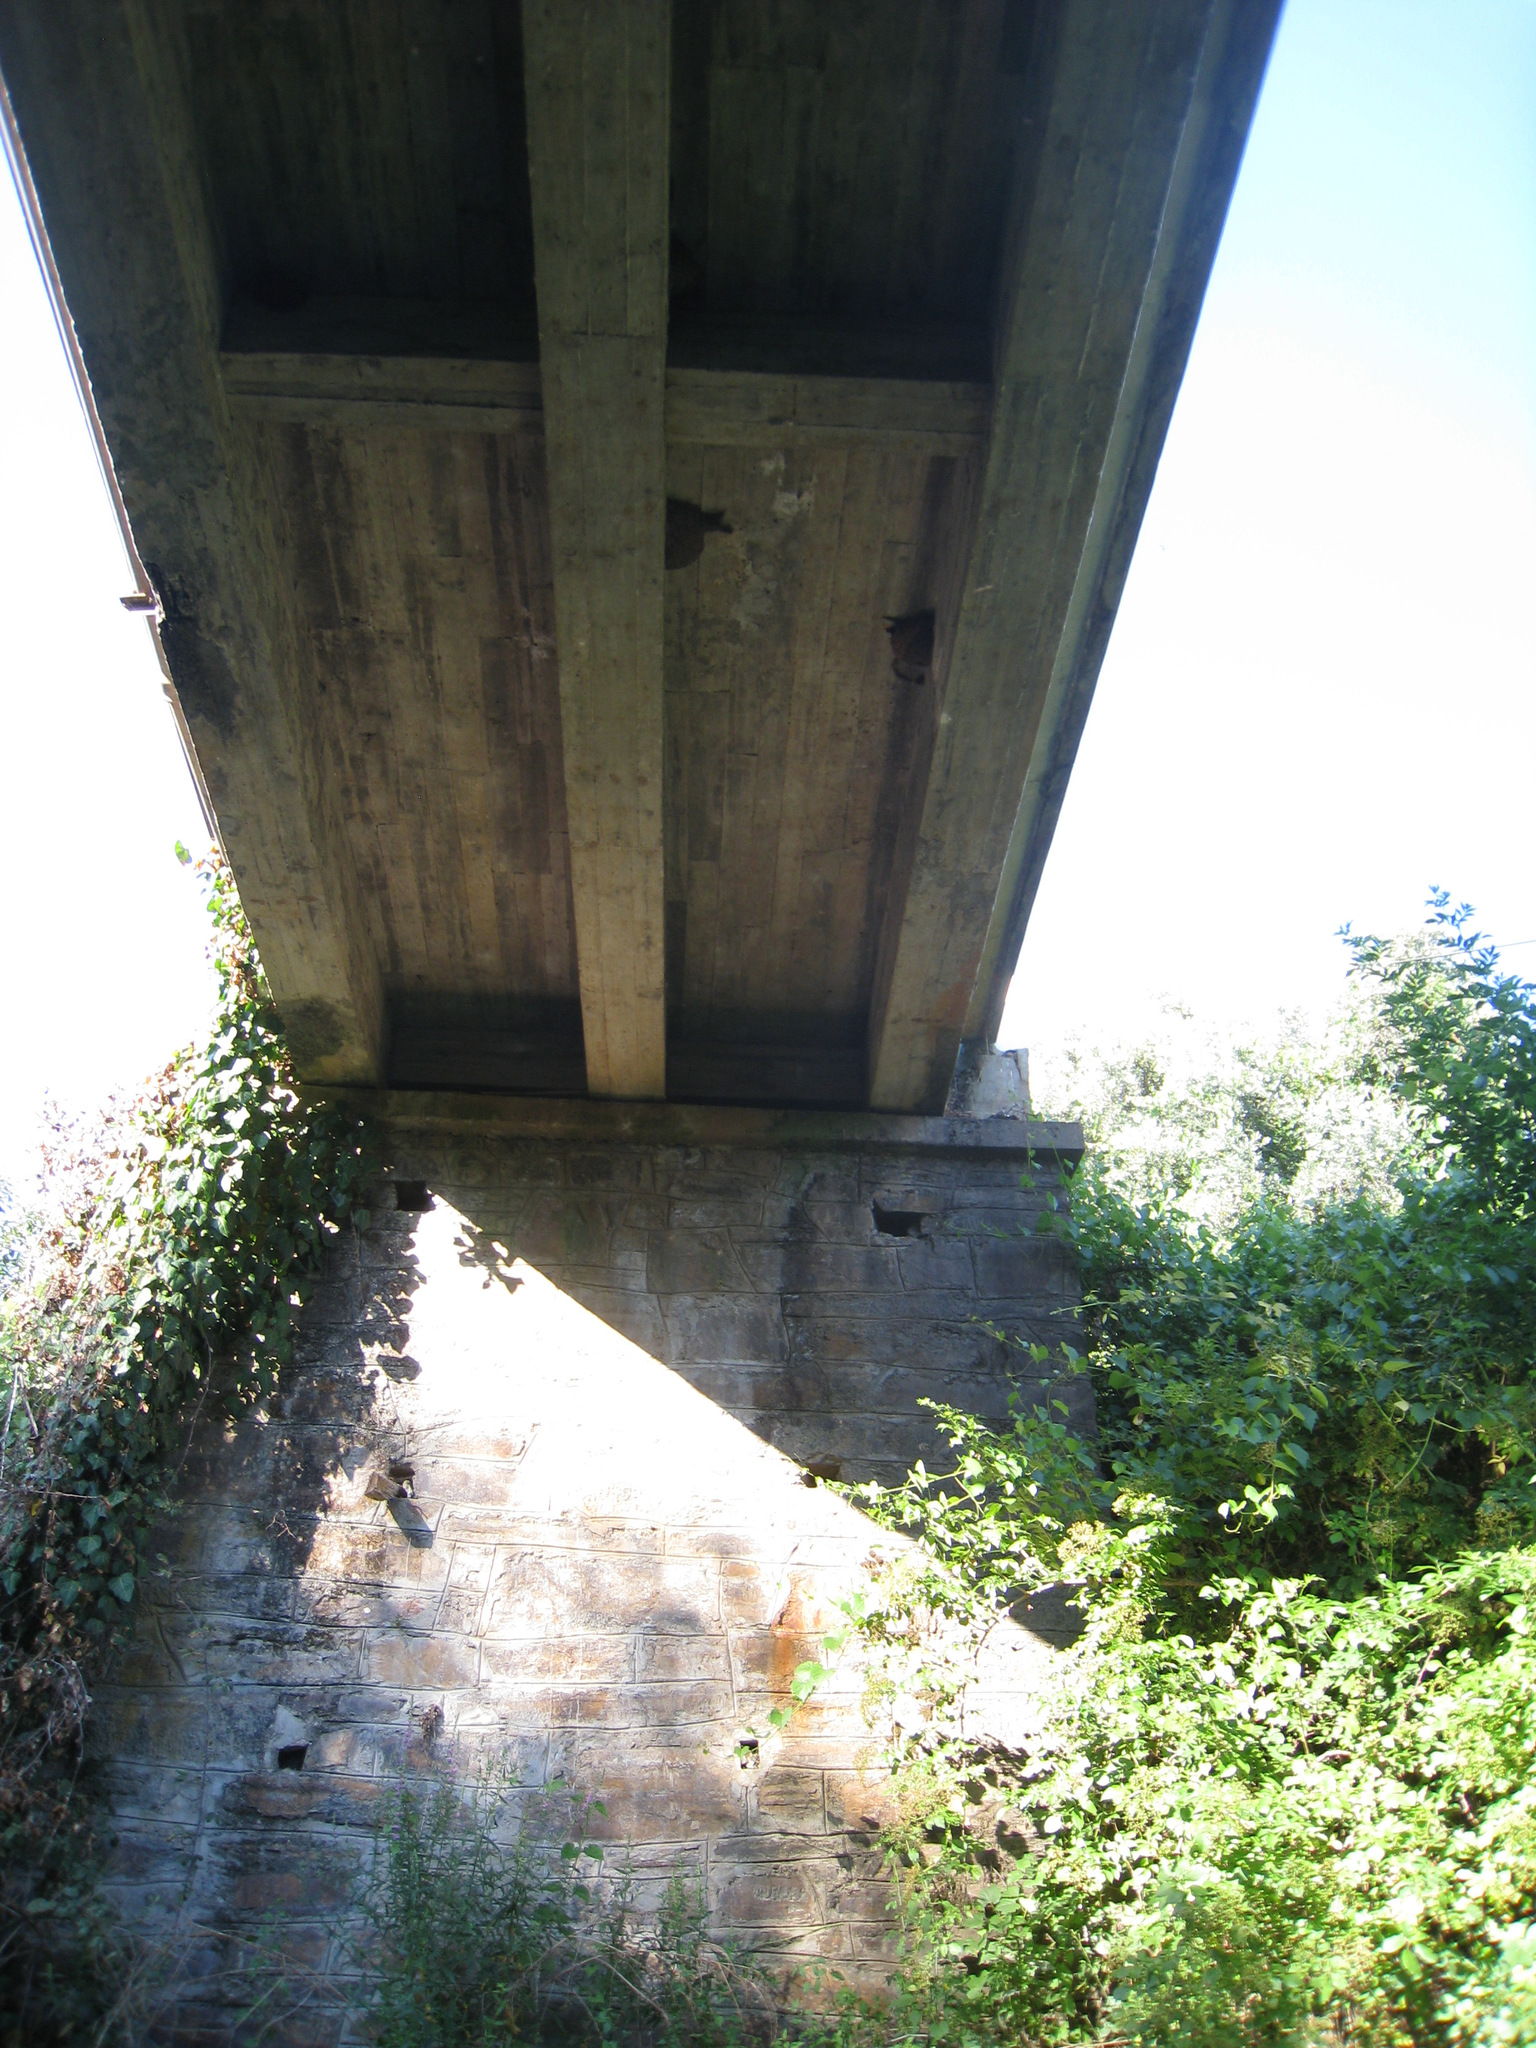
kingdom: Animalia
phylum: Chordata
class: Aves
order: Passeriformes
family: Hirundinidae
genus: Cecropis
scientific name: Cecropis daurica
